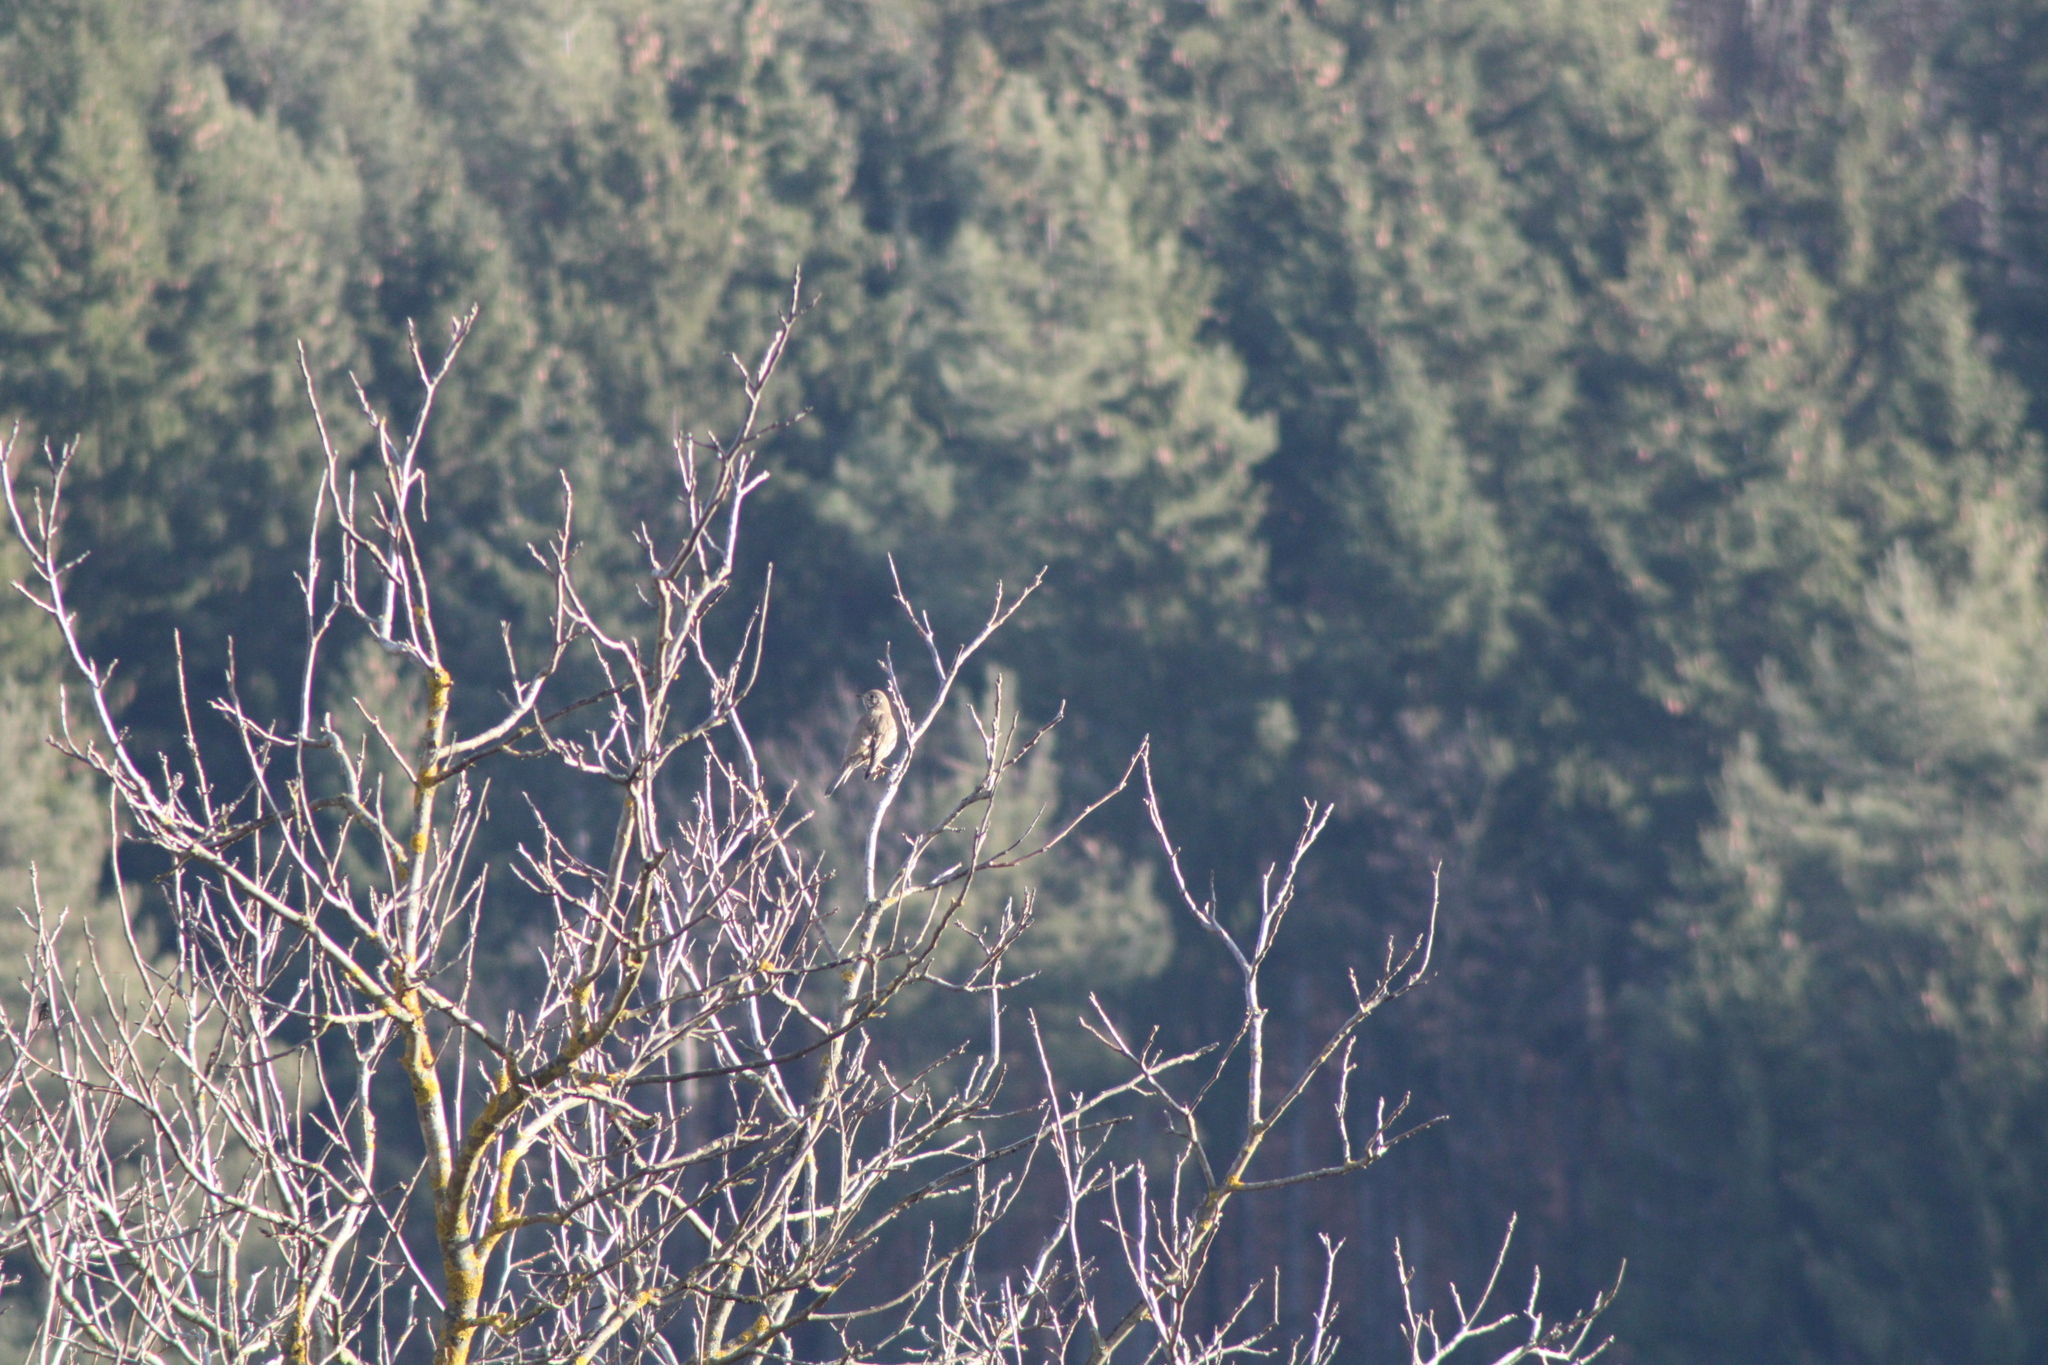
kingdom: Animalia
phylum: Chordata
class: Aves
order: Passeriformes
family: Turdidae
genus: Turdus
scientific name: Turdus viscivorus
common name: Mistle thrush
